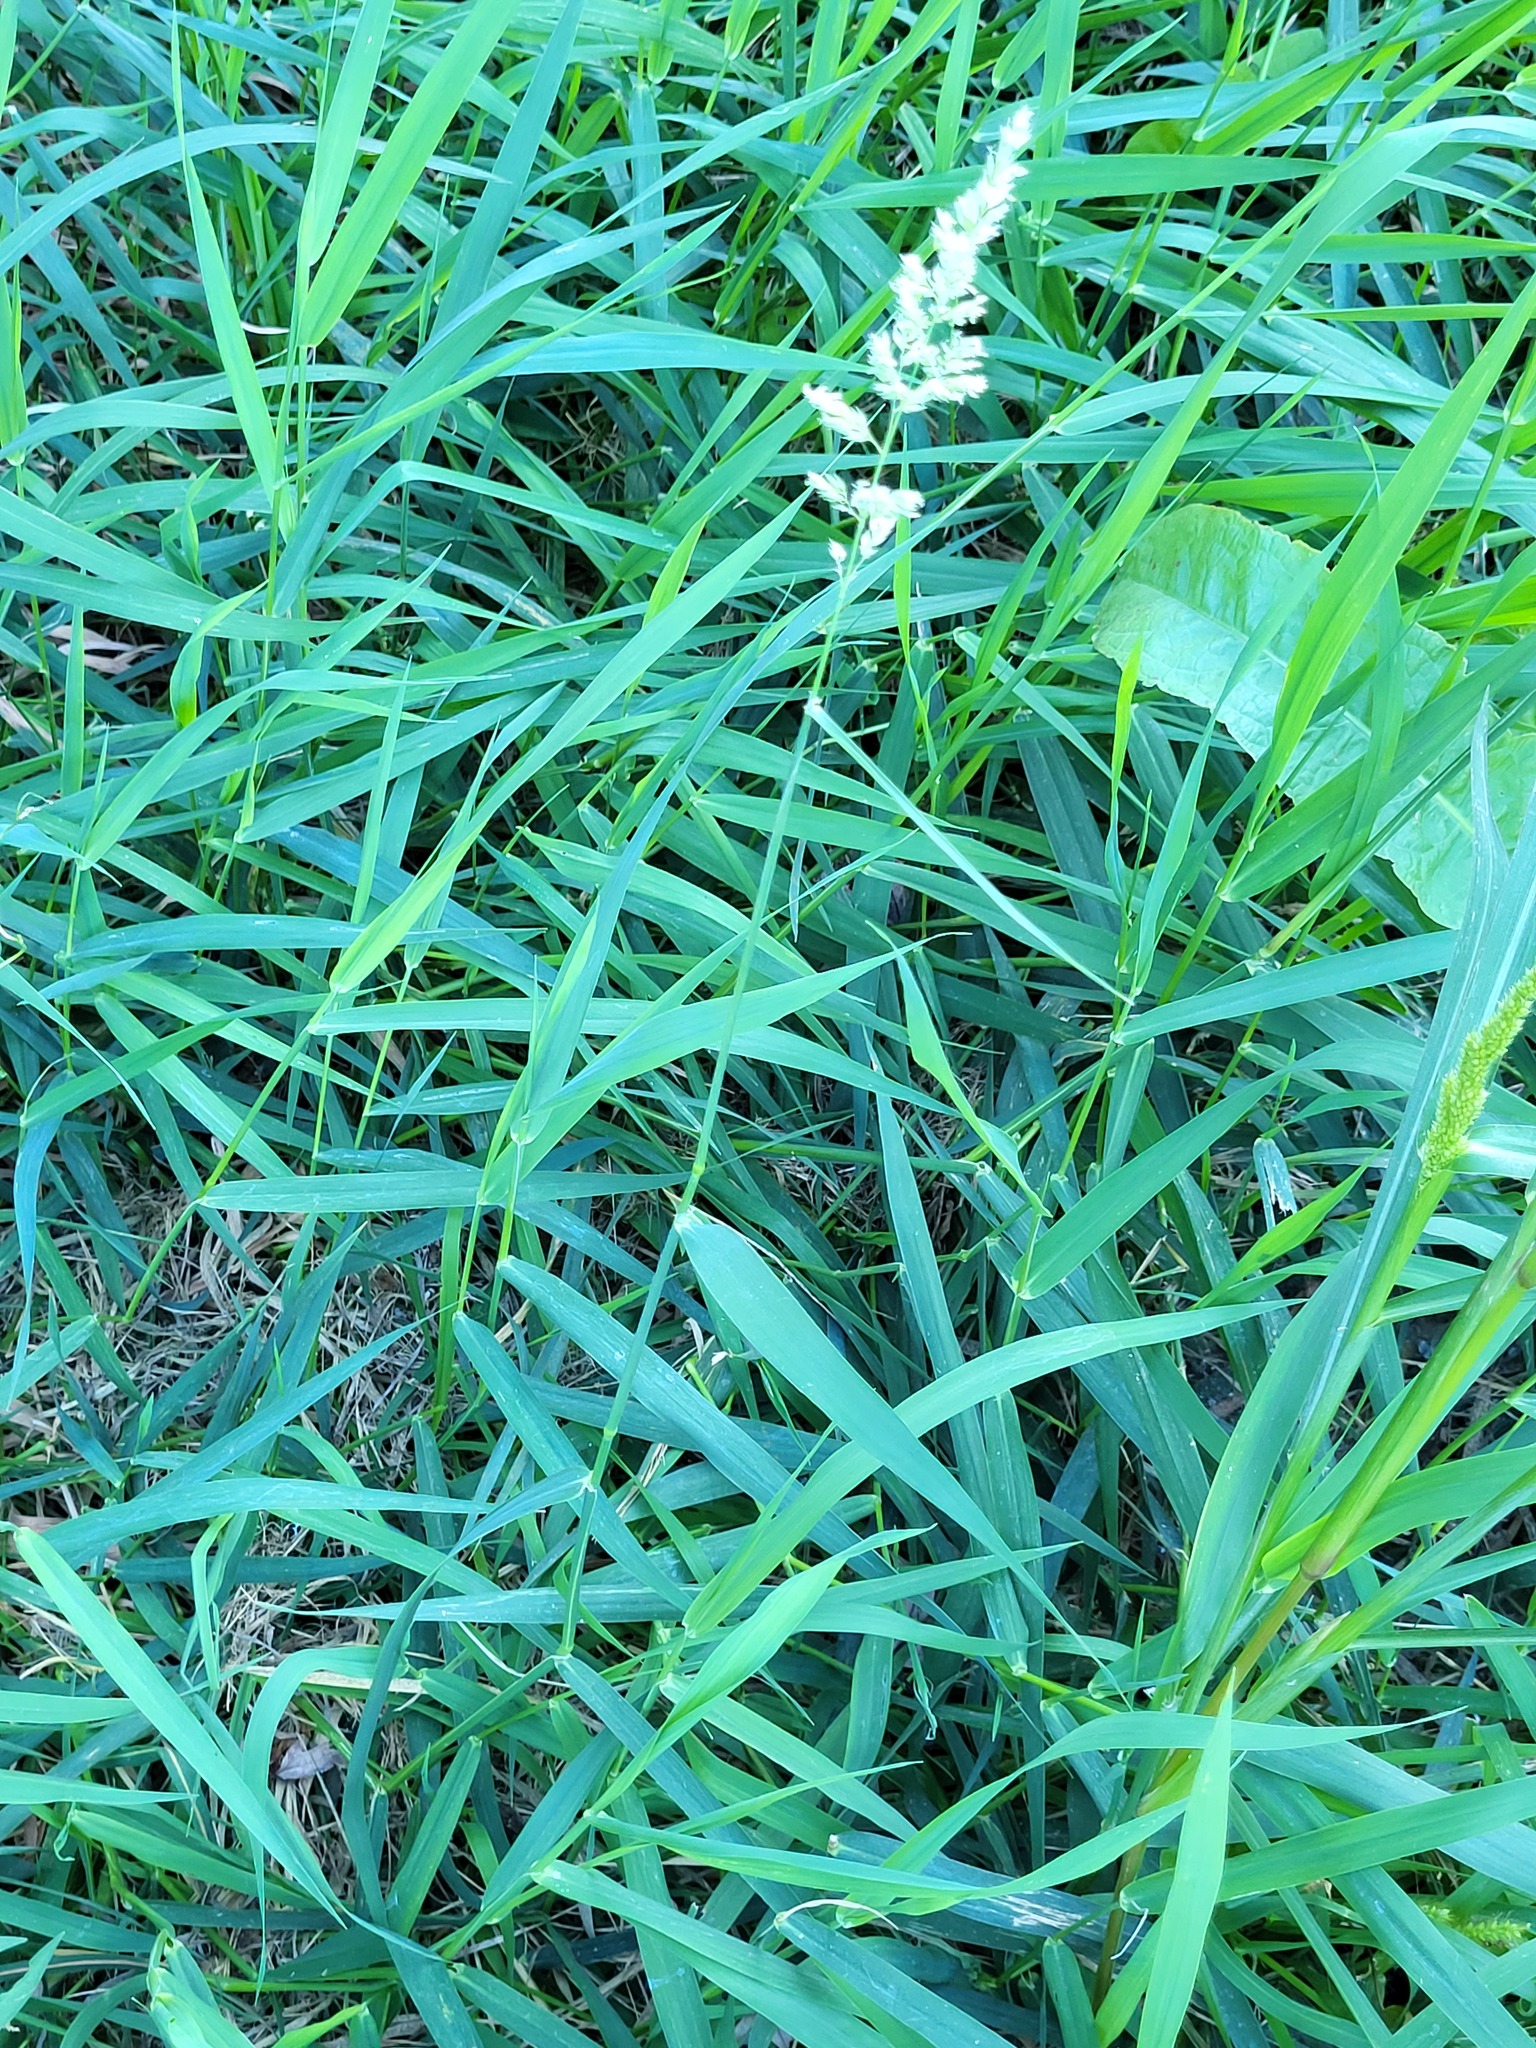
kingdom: Plantae
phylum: Tracheophyta
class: Liliopsida
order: Poales
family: Poaceae
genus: Phalaris
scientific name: Phalaris arundinacea
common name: Reed canary-grass
